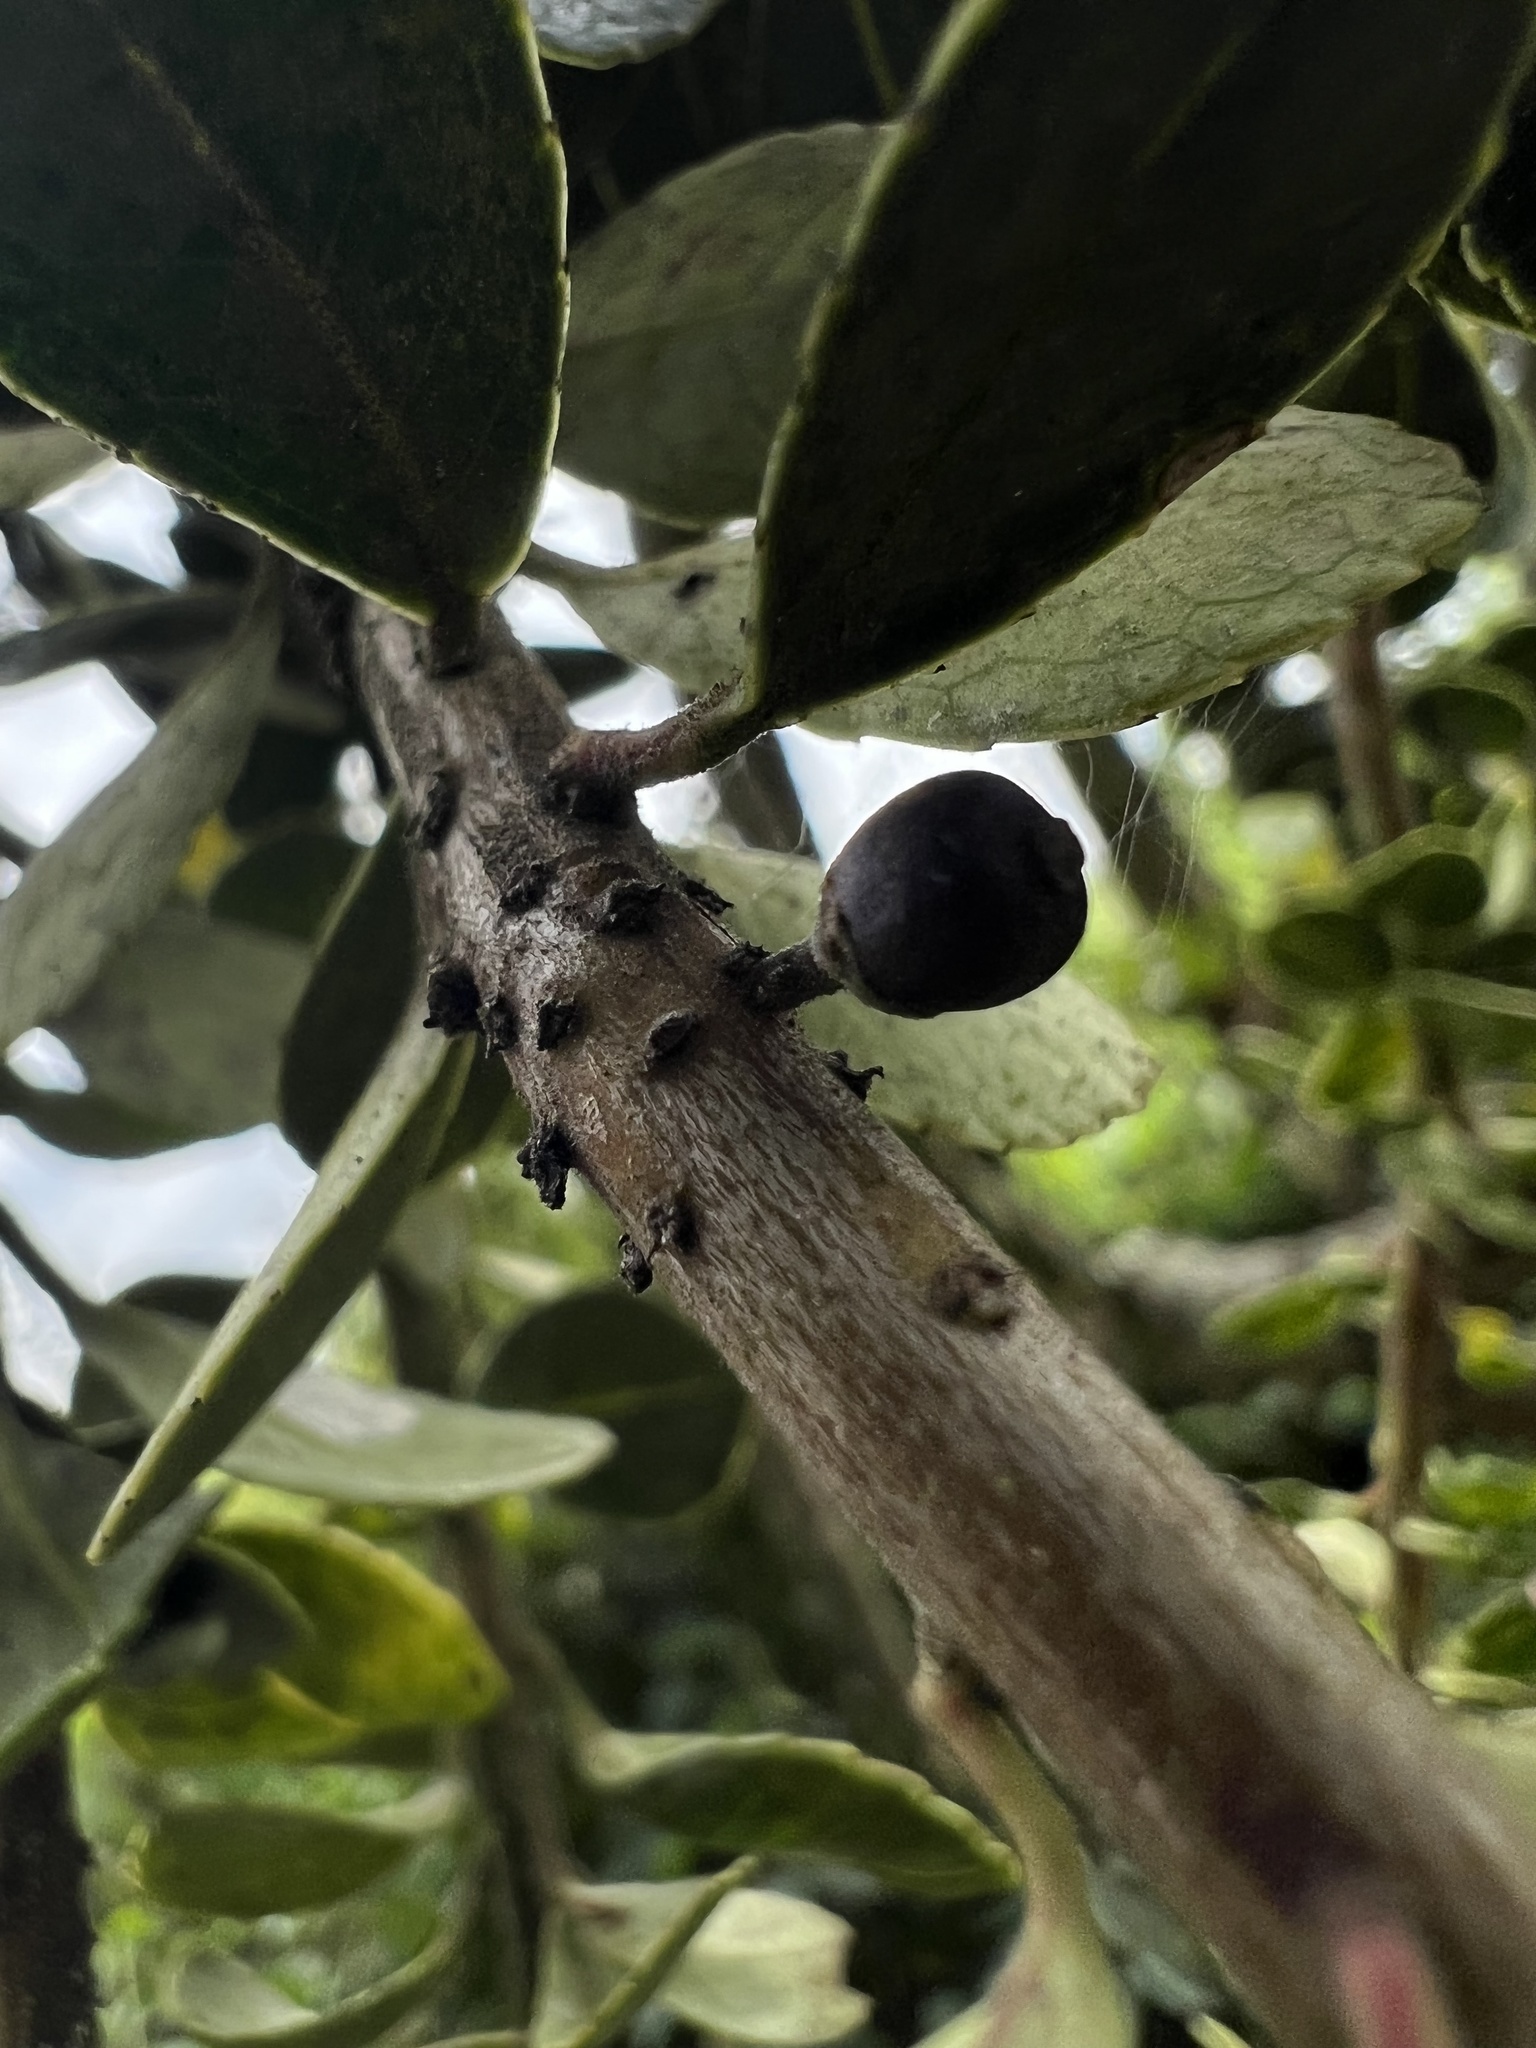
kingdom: Plantae
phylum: Tracheophyta
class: Magnoliopsida
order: Aquifoliales
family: Aquifoliaceae
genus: Ilex
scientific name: Ilex microphylla
